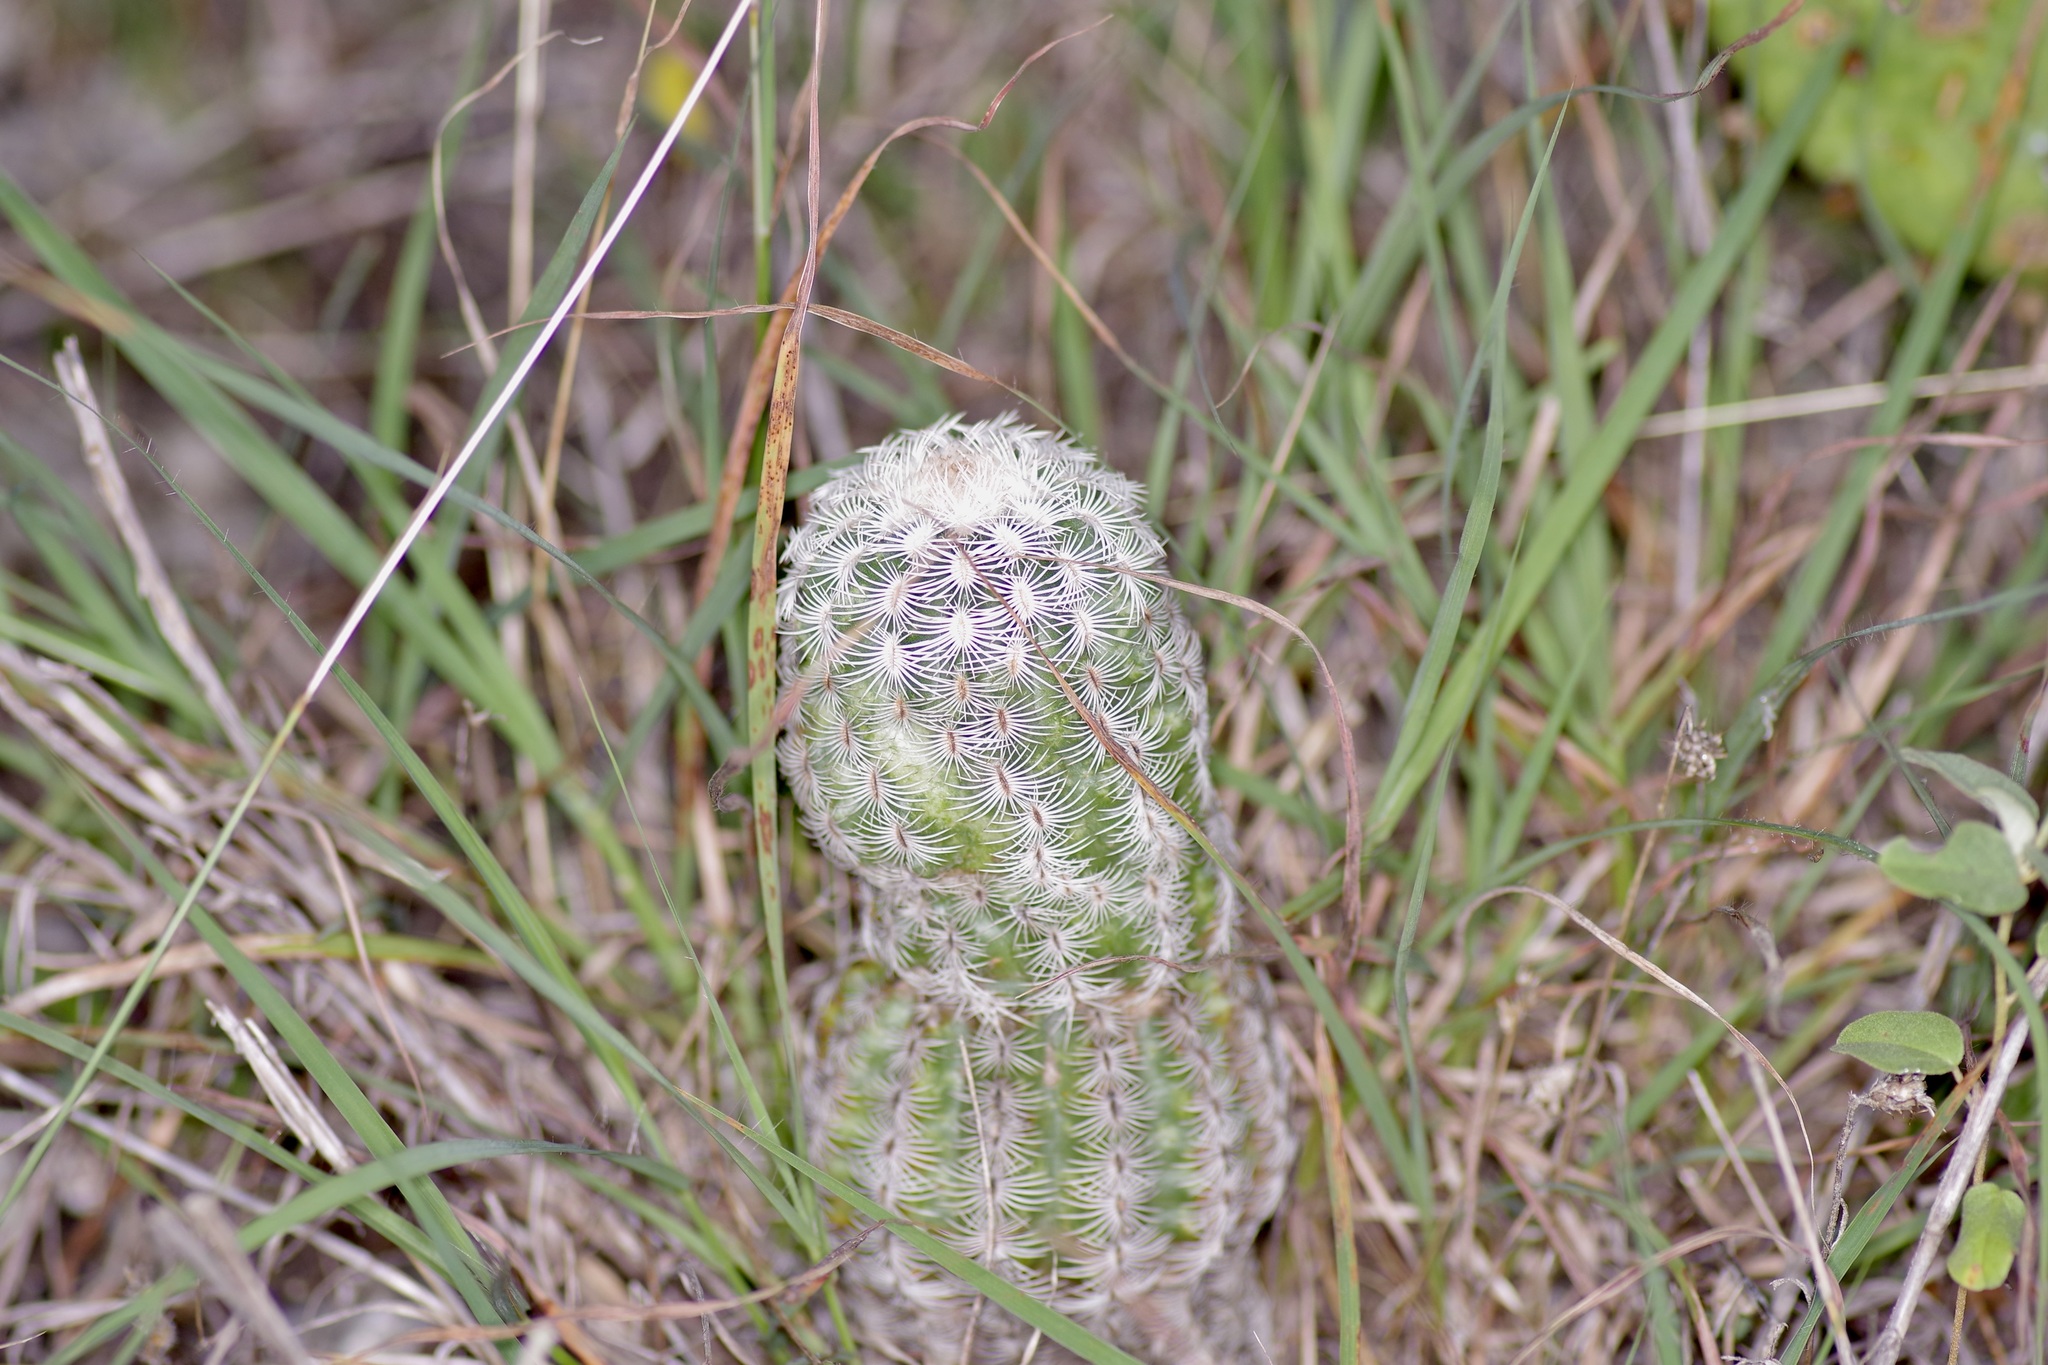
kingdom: Plantae
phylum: Tracheophyta
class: Magnoliopsida
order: Caryophyllales
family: Cactaceae
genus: Echinocereus
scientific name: Echinocereus reichenbachii
